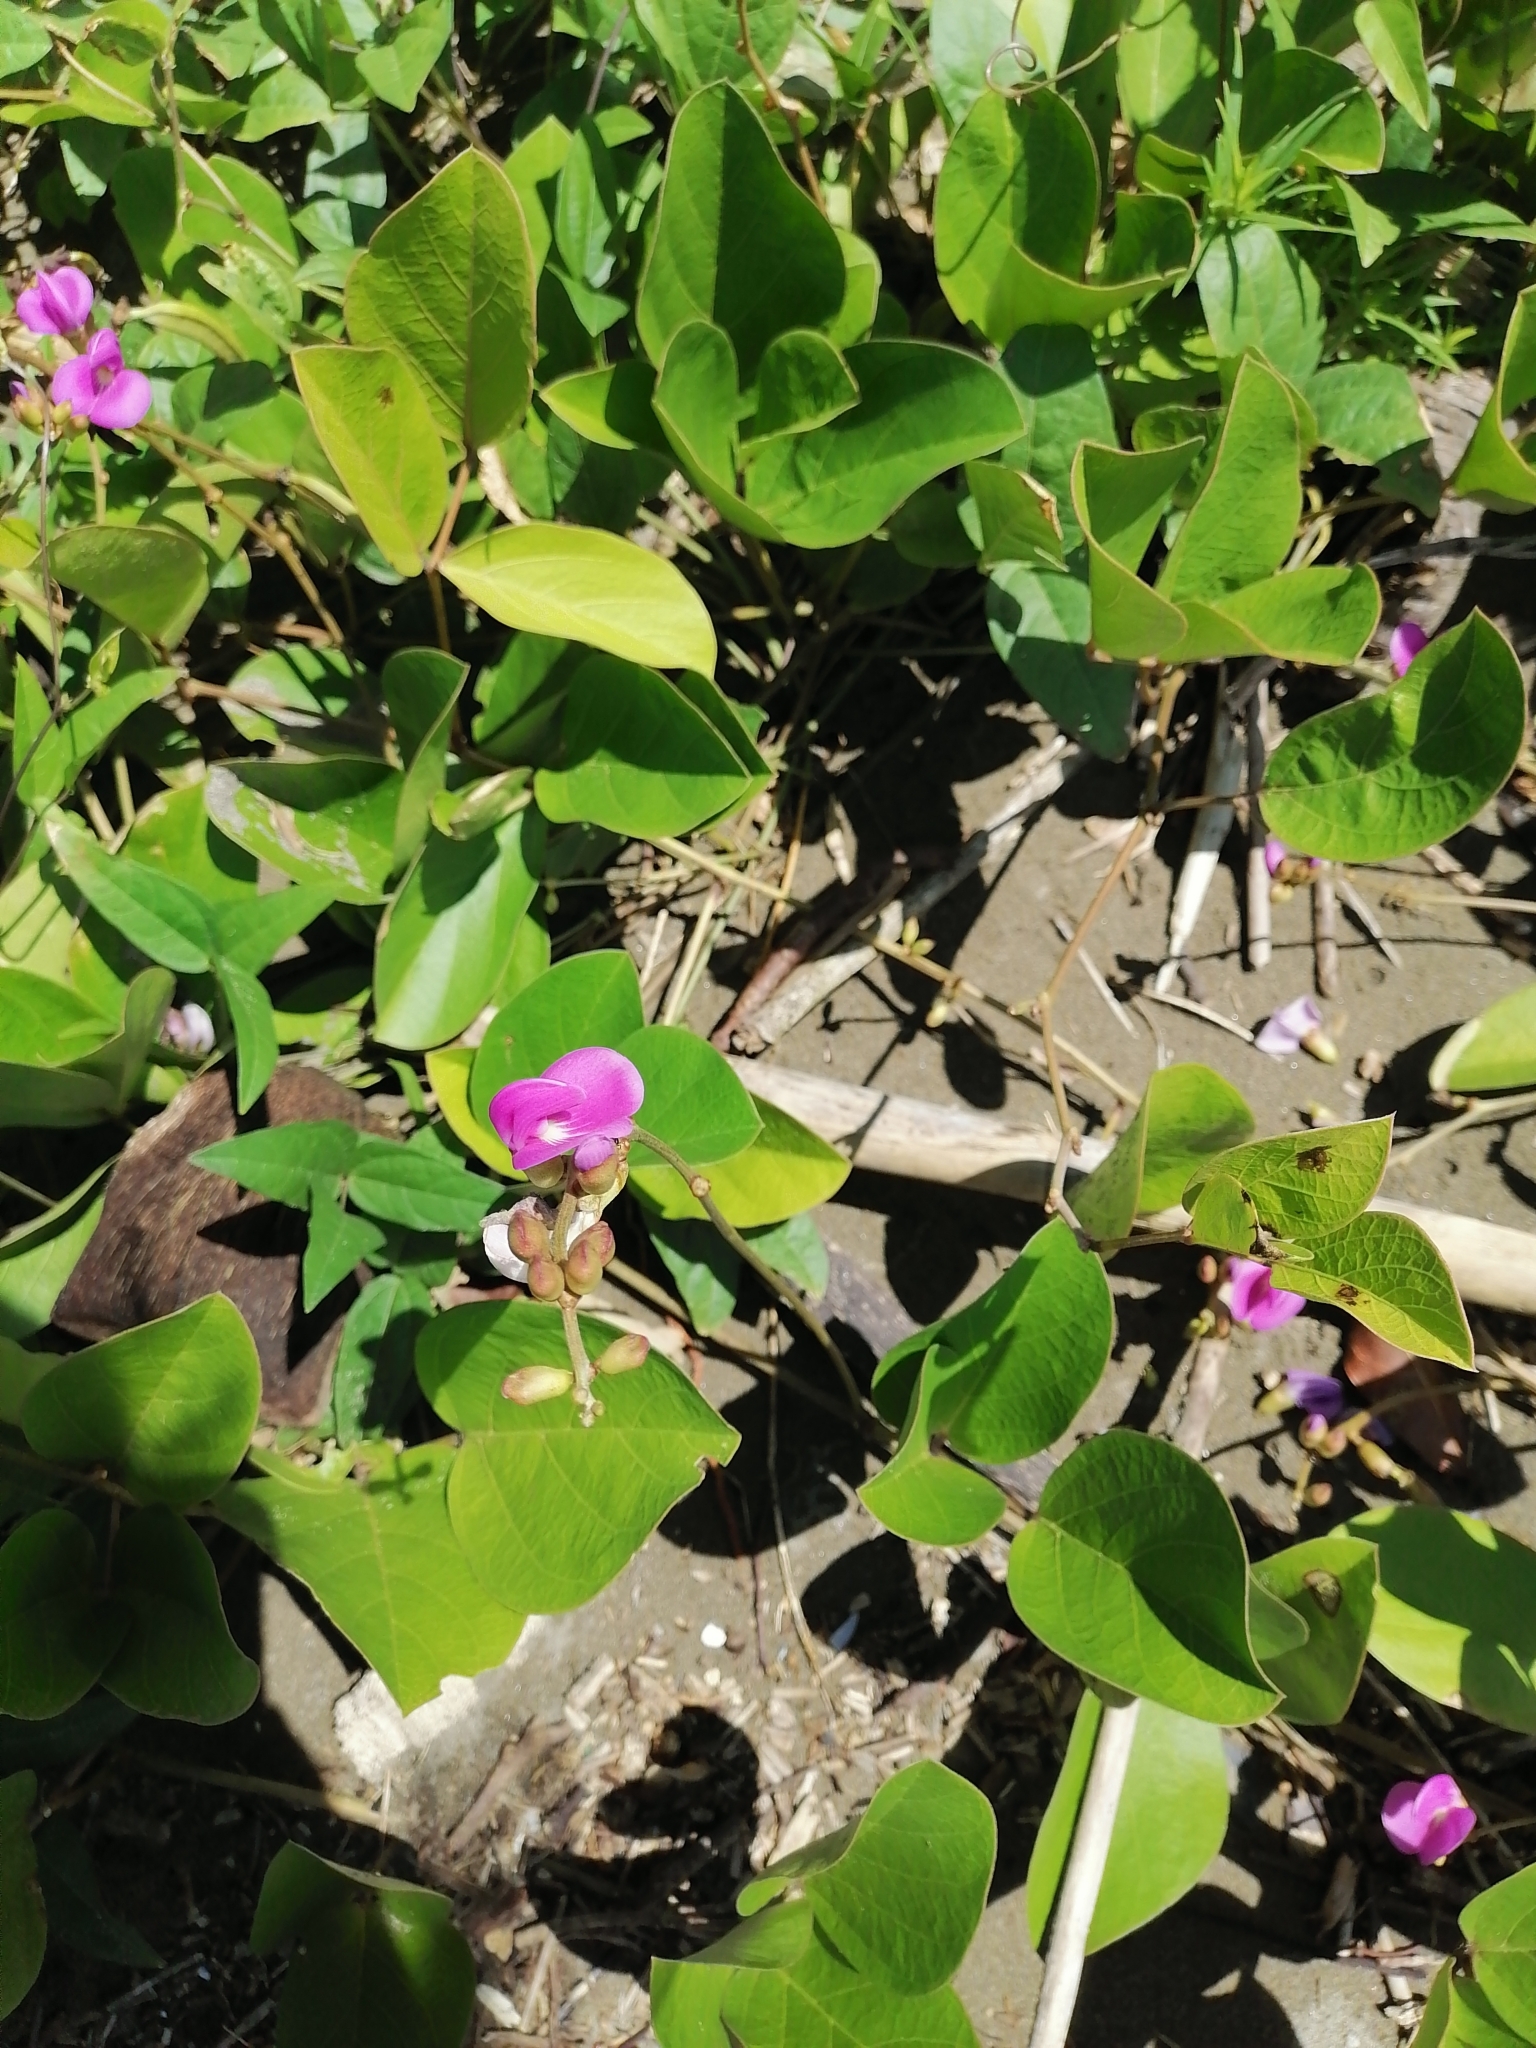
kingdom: Plantae
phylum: Tracheophyta
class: Magnoliopsida
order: Fabales
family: Fabaceae
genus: Canavalia
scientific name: Canavalia rosea
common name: Beach-bean
